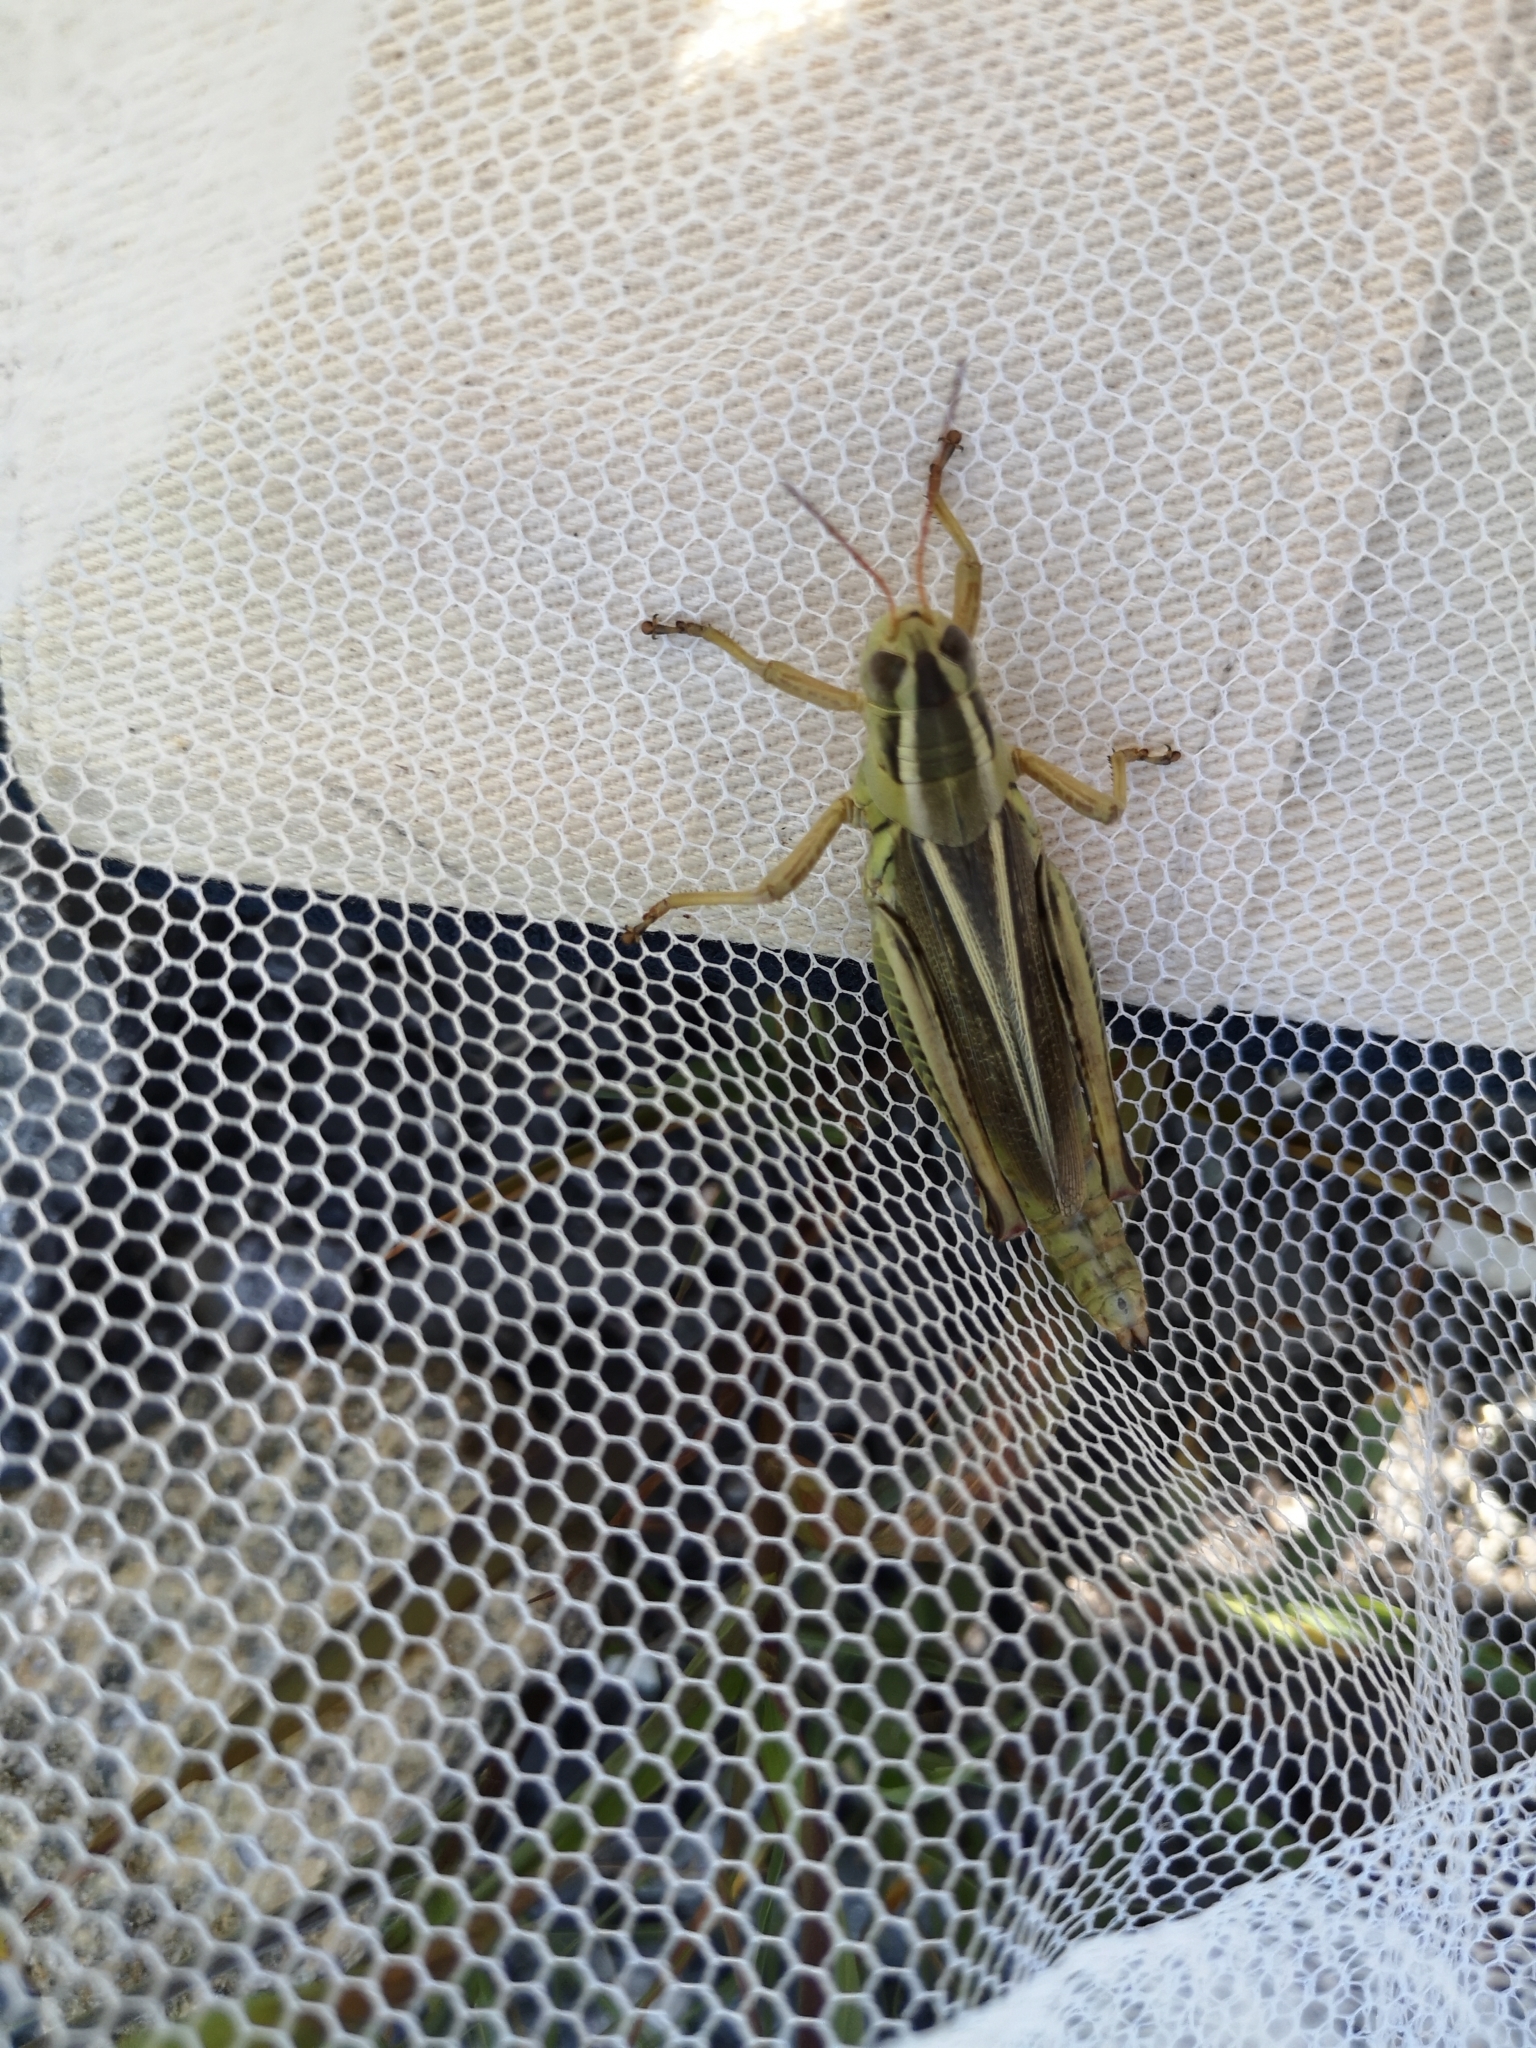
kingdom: Animalia
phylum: Arthropoda
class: Insecta
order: Orthoptera
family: Acrididae
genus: Melanoplus
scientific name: Melanoplus bivittatus
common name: Two-striped grasshopper
